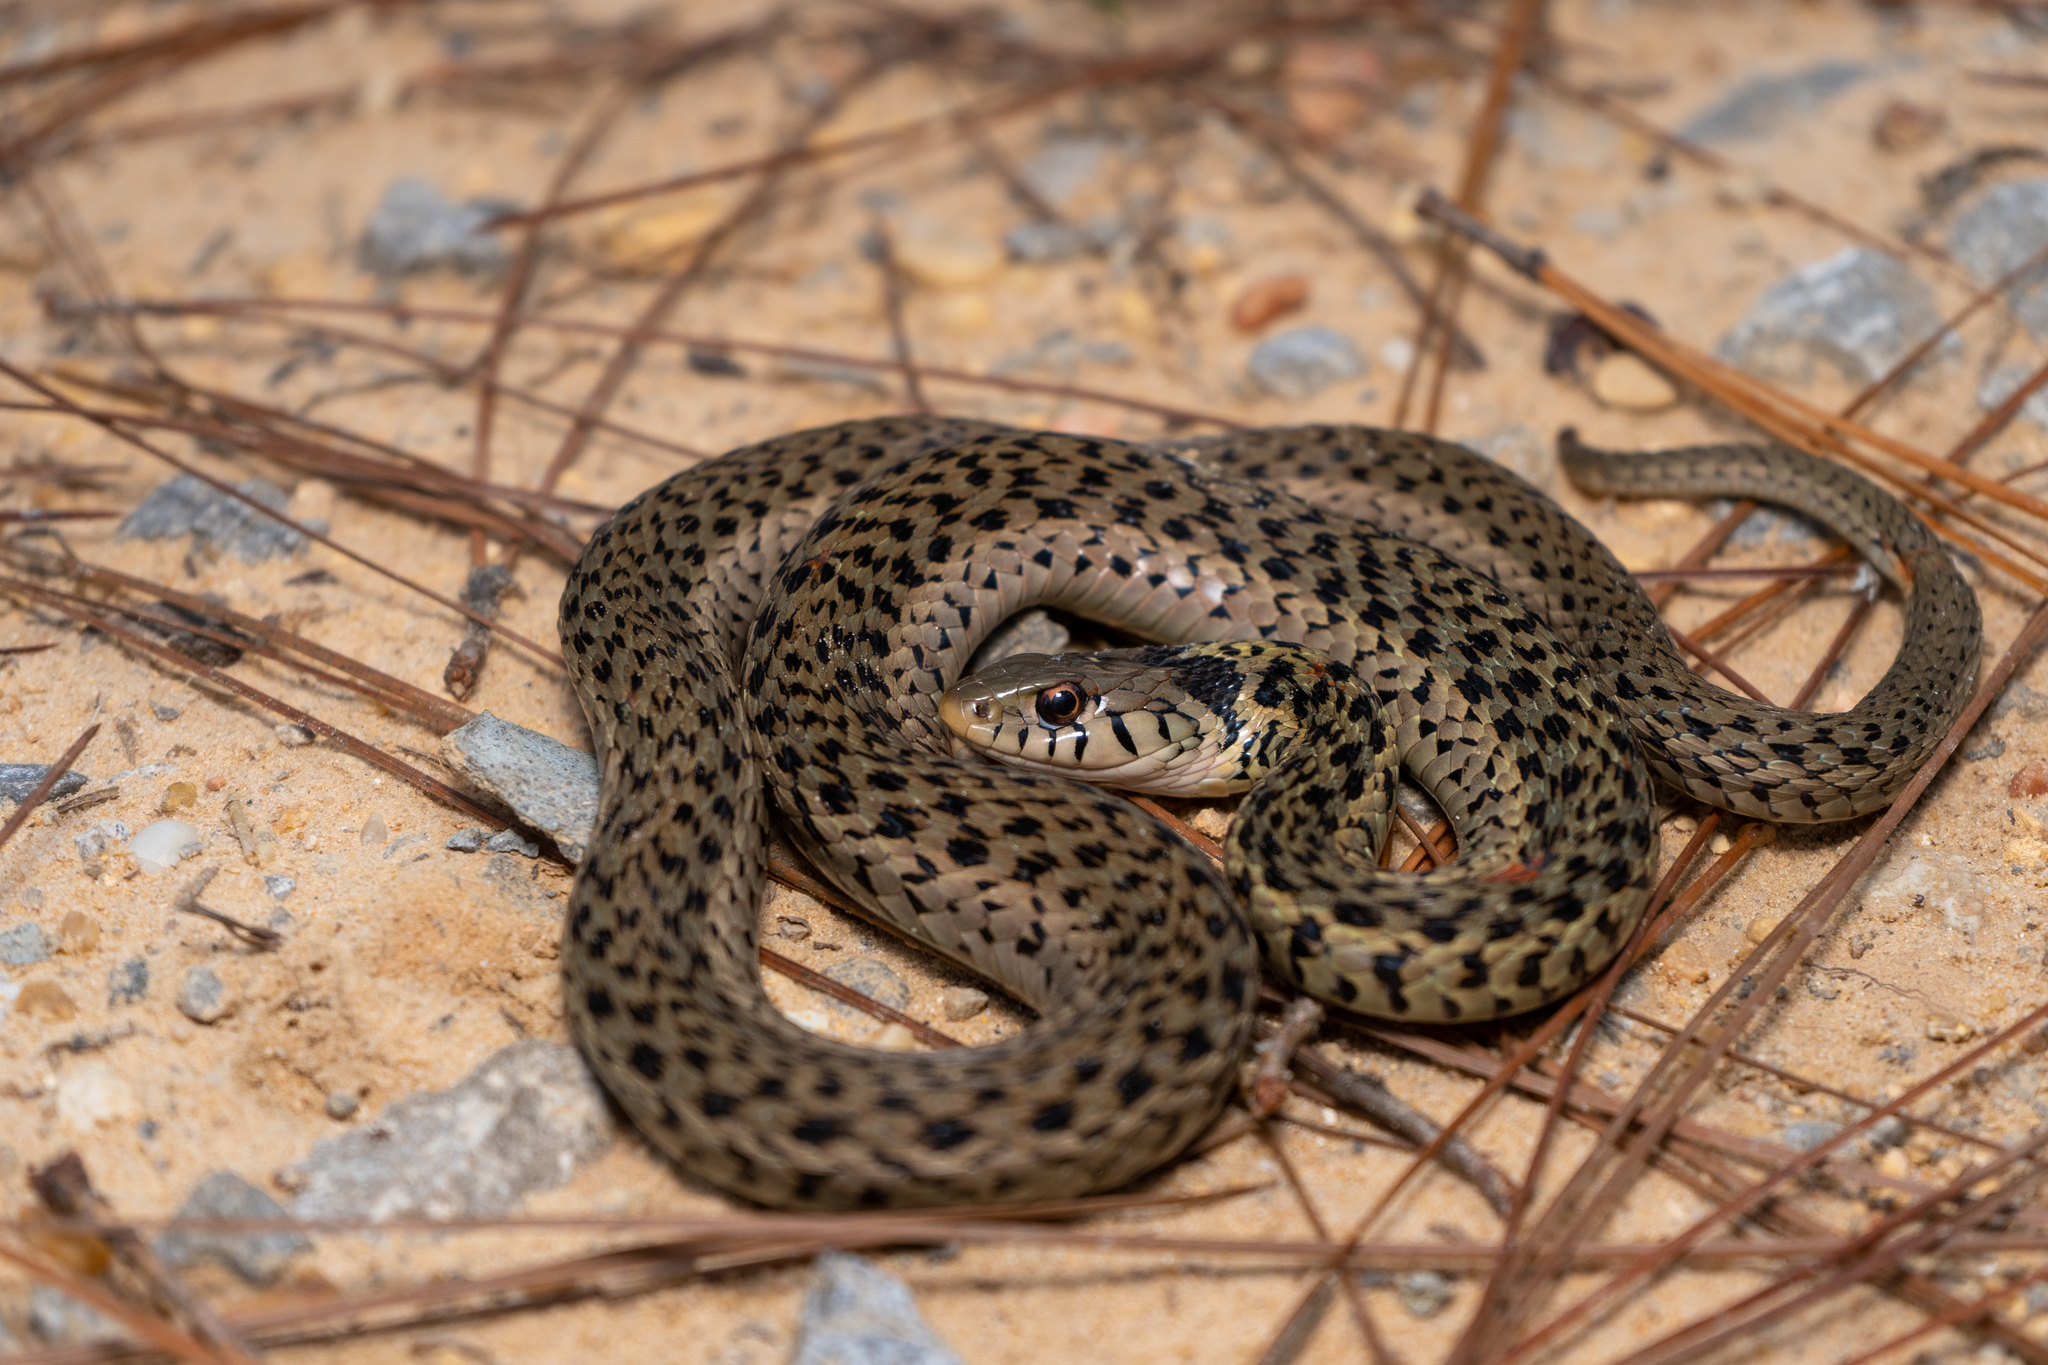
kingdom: Animalia
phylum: Chordata
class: Squamata
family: Colubridae
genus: Thamnophis
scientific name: Thamnophis sirtalis
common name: Common garter snake
